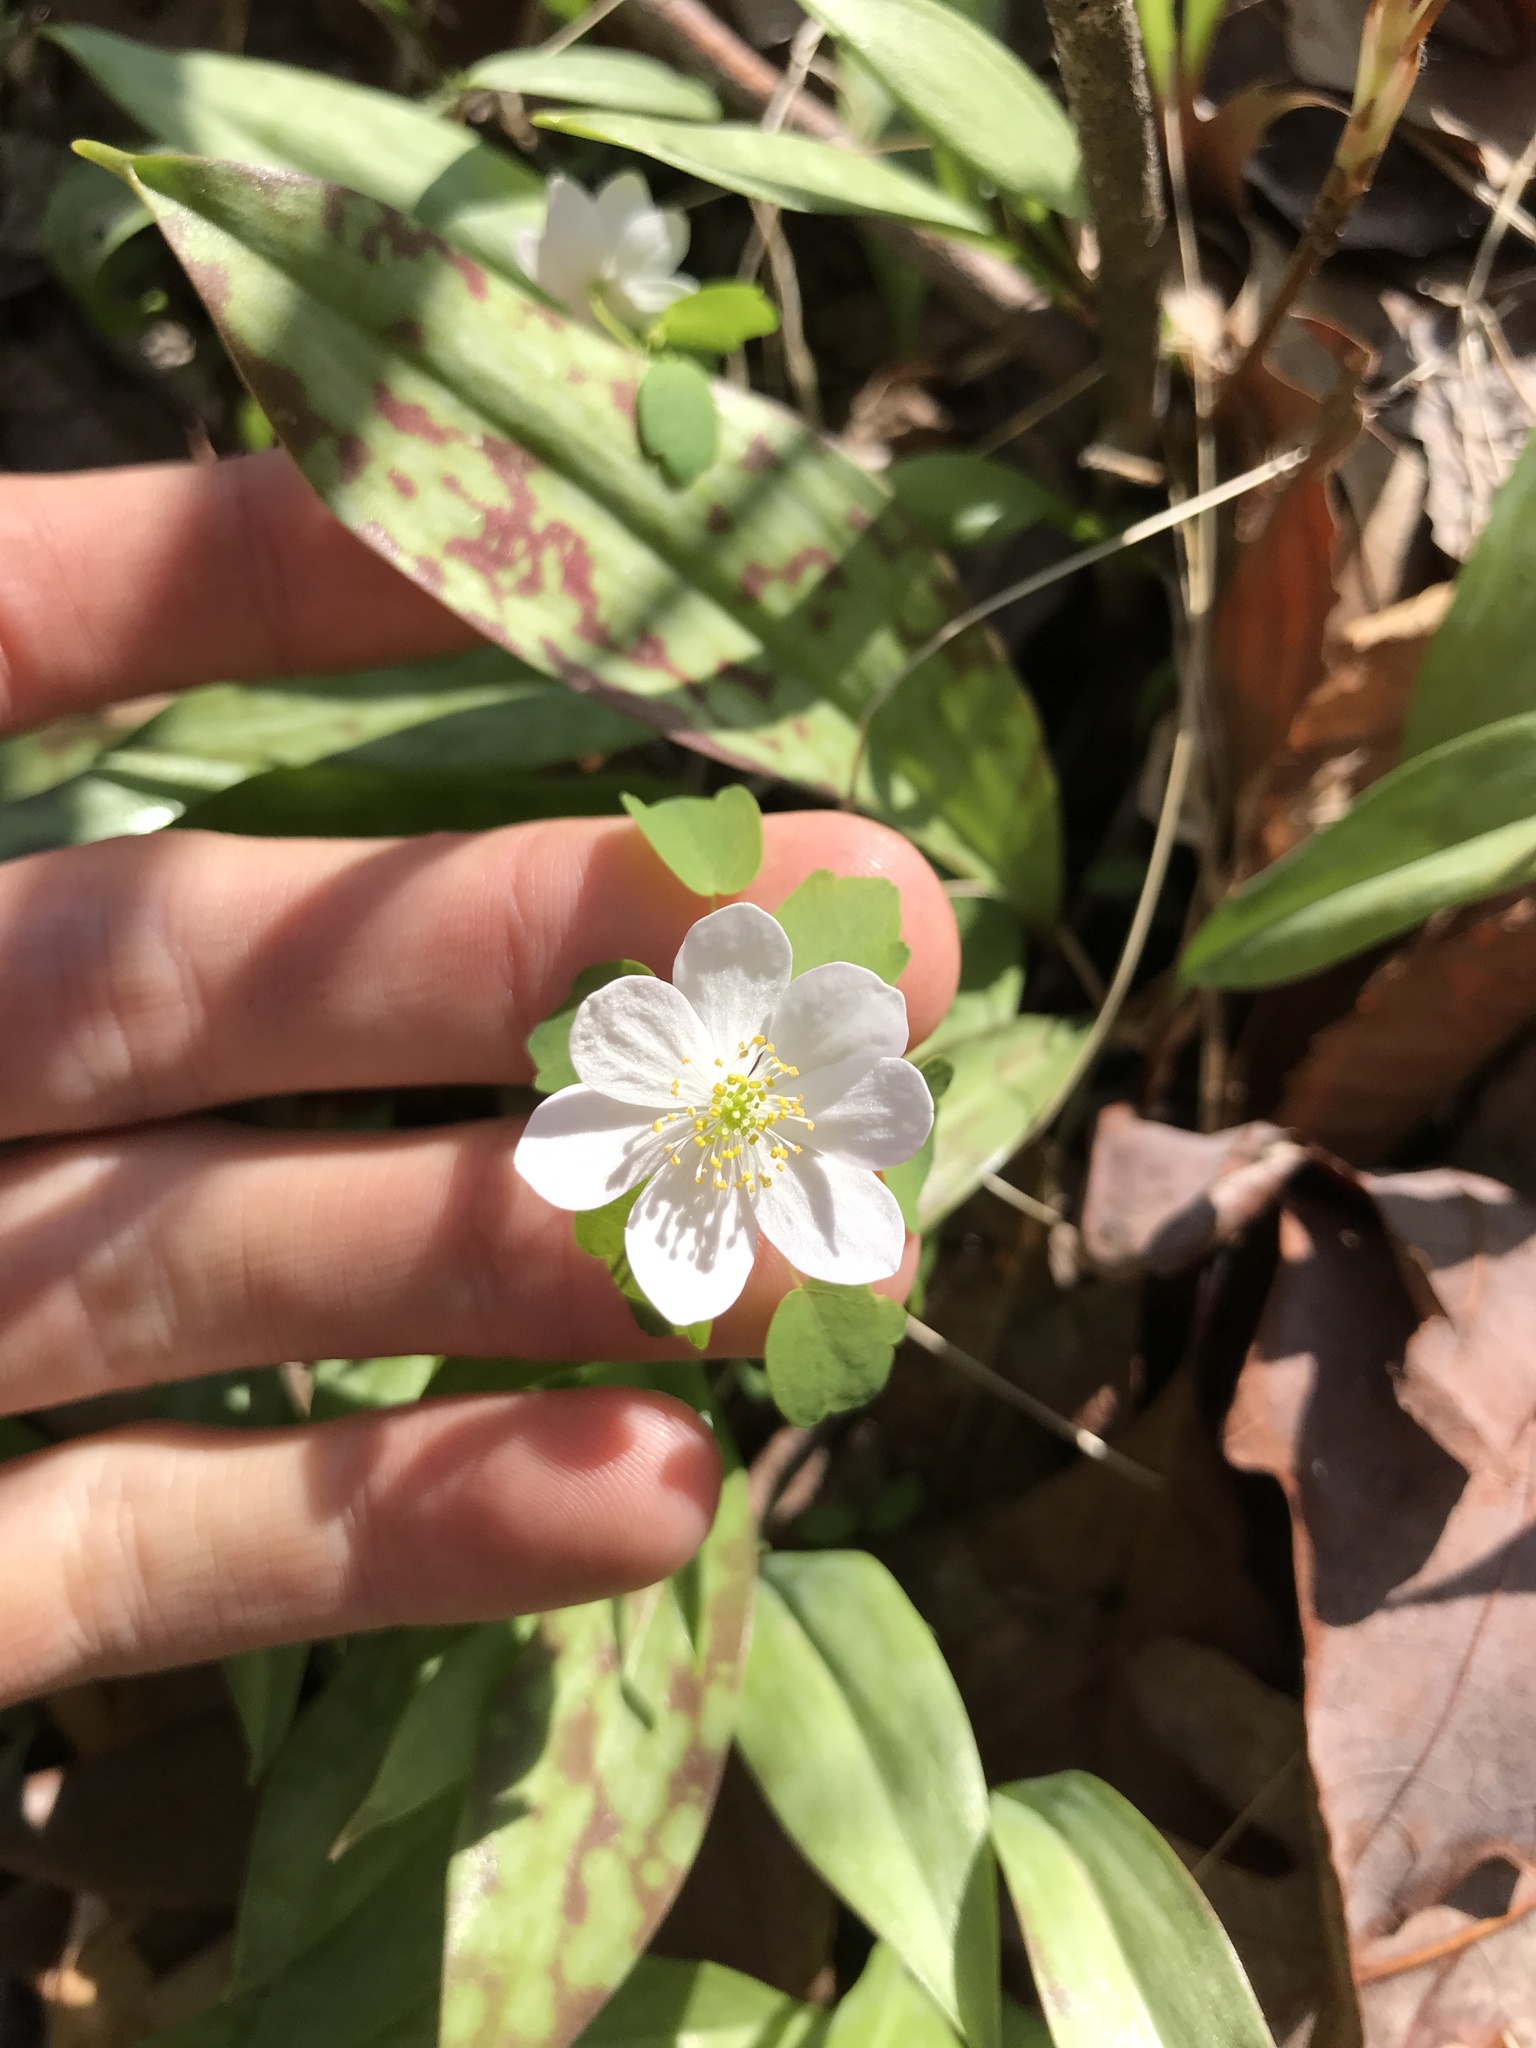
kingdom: Plantae
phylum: Tracheophyta
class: Magnoliopsida
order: Ranunculales
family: Ranunculaceae
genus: Thalictrum
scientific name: Thalictrum thalictroides
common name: Rue-anemone
